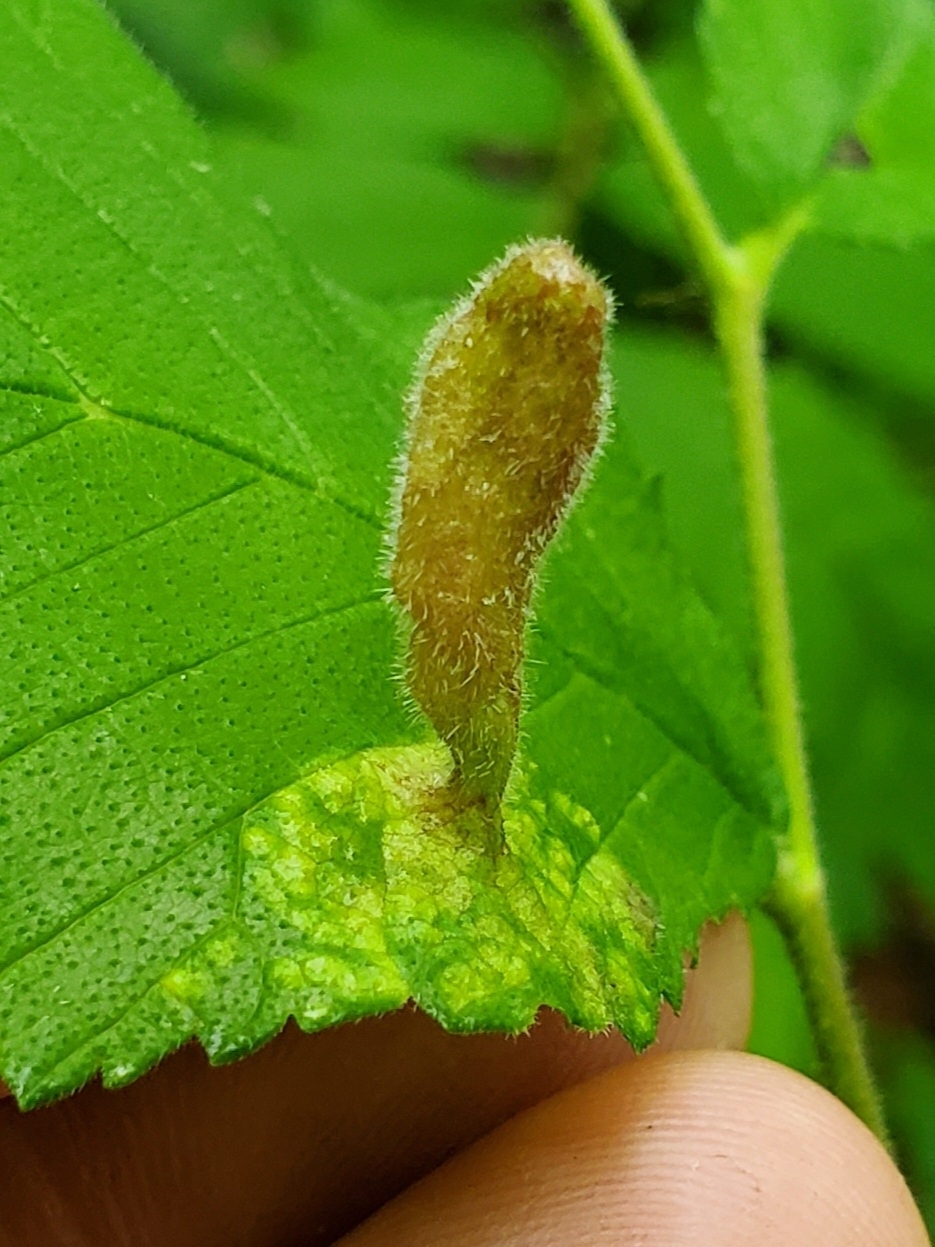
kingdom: Animalia
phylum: Arthropoda
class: Insecta
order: Hemiptera
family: Aphididae
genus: Tetraneura
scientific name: Tetraneura nigriabdominalis
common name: Aphid
